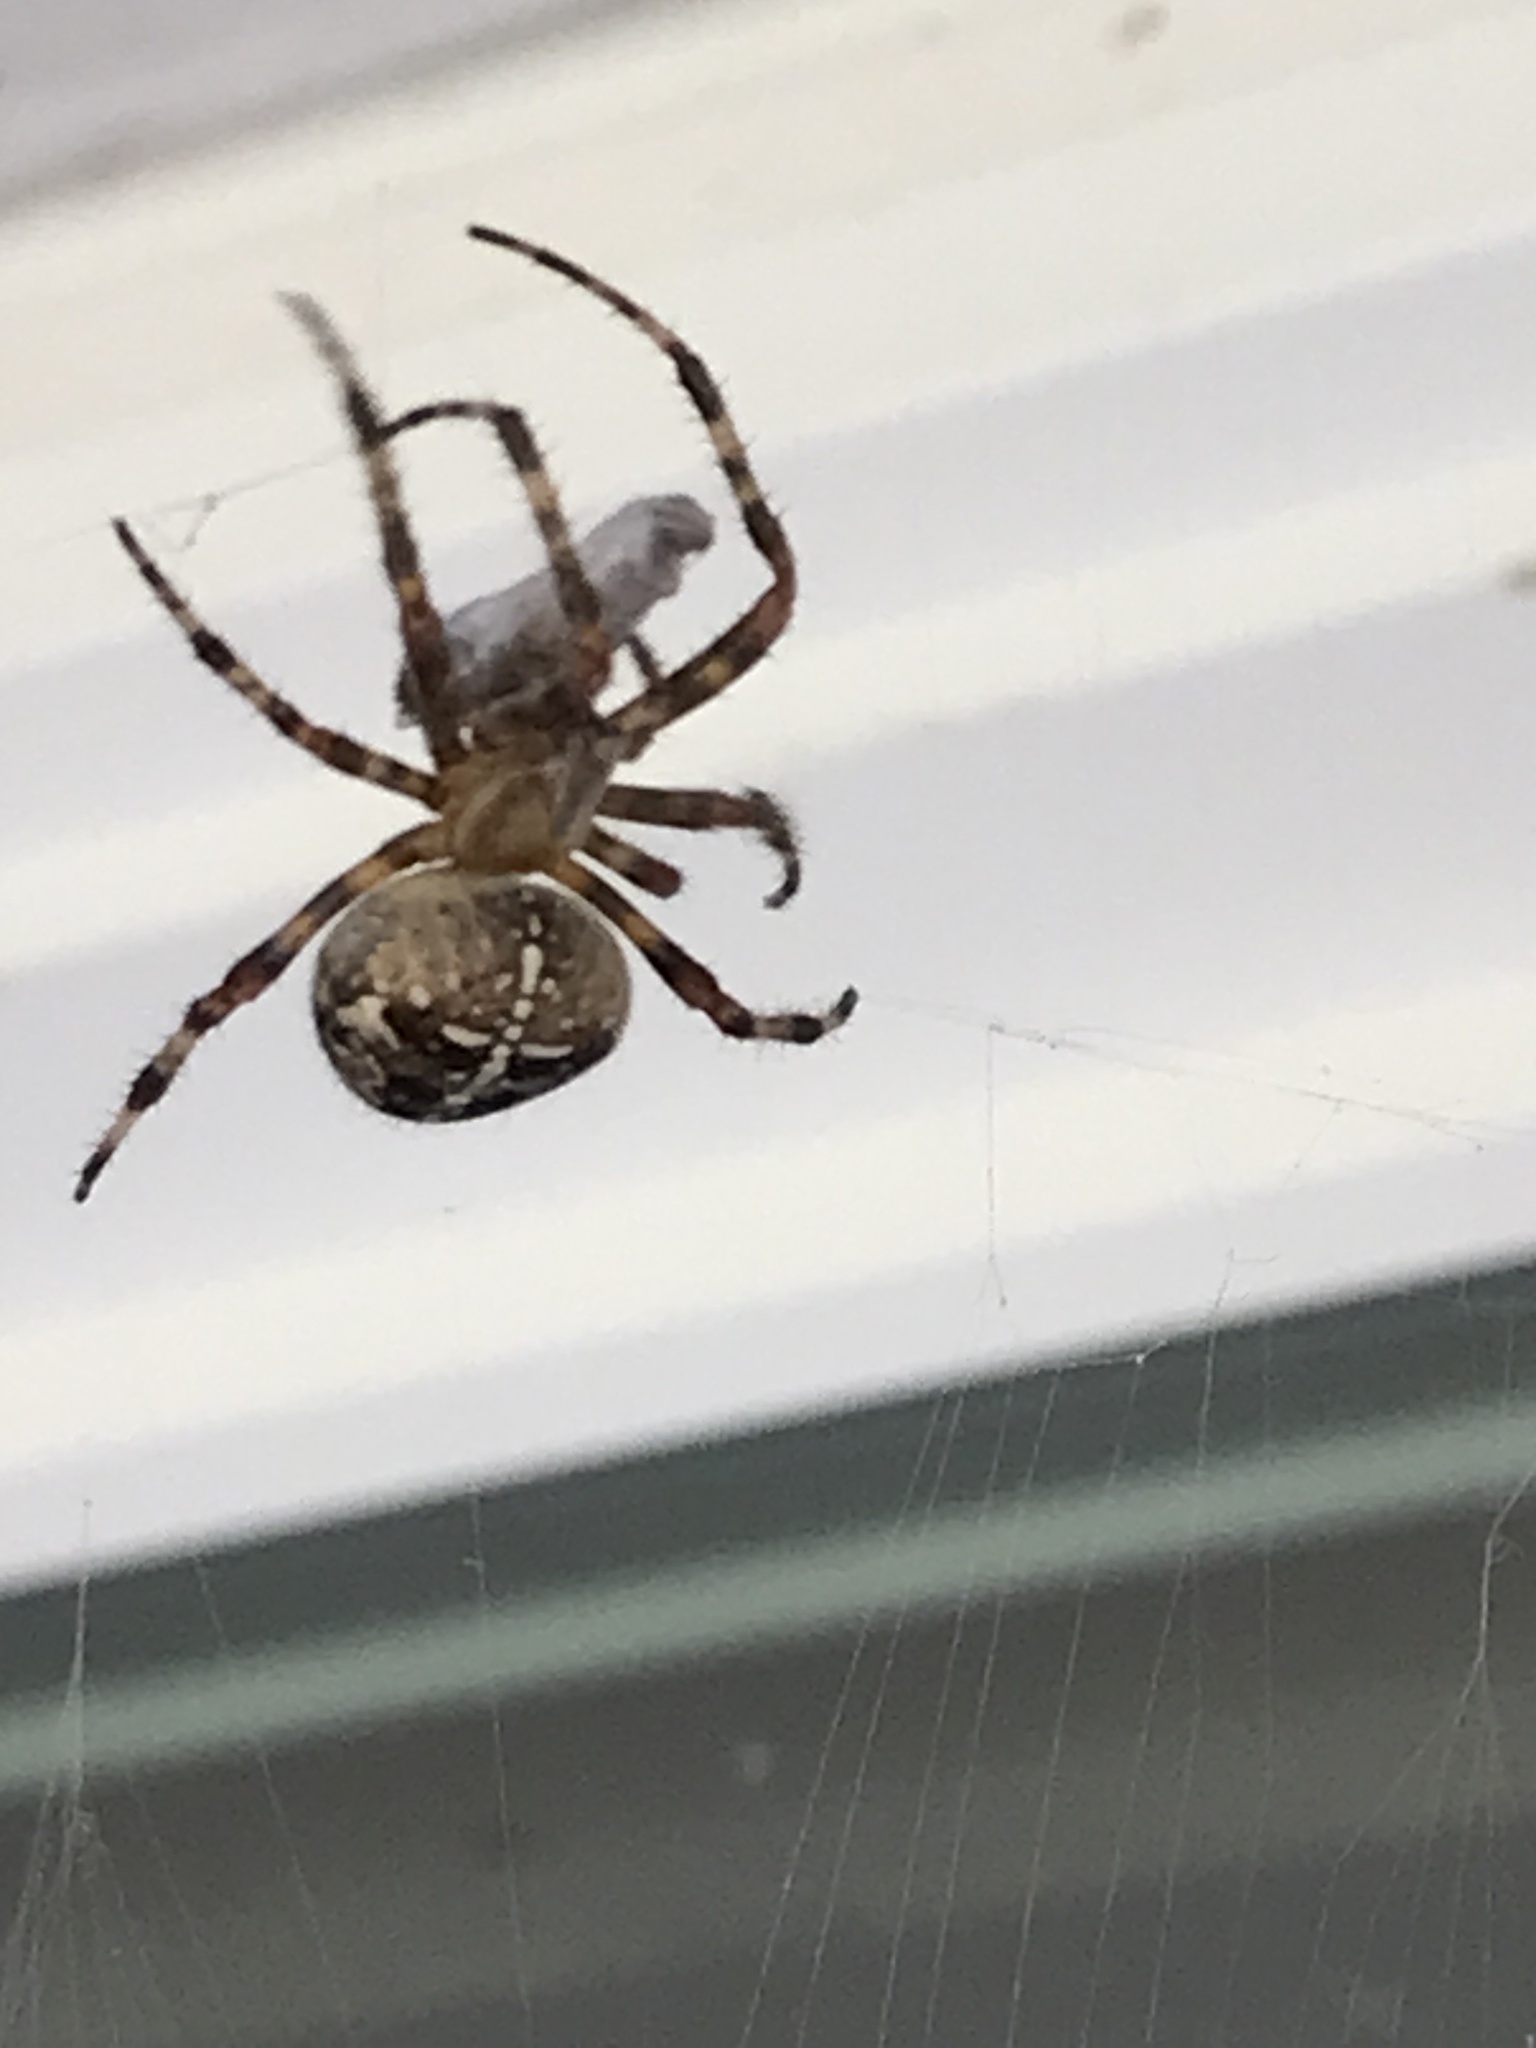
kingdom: Animalia
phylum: Arthropoda
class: Arachnida
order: Araneae
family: Araneidae
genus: Araneus
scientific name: Araneus diadematus
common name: Cross orbweaver
